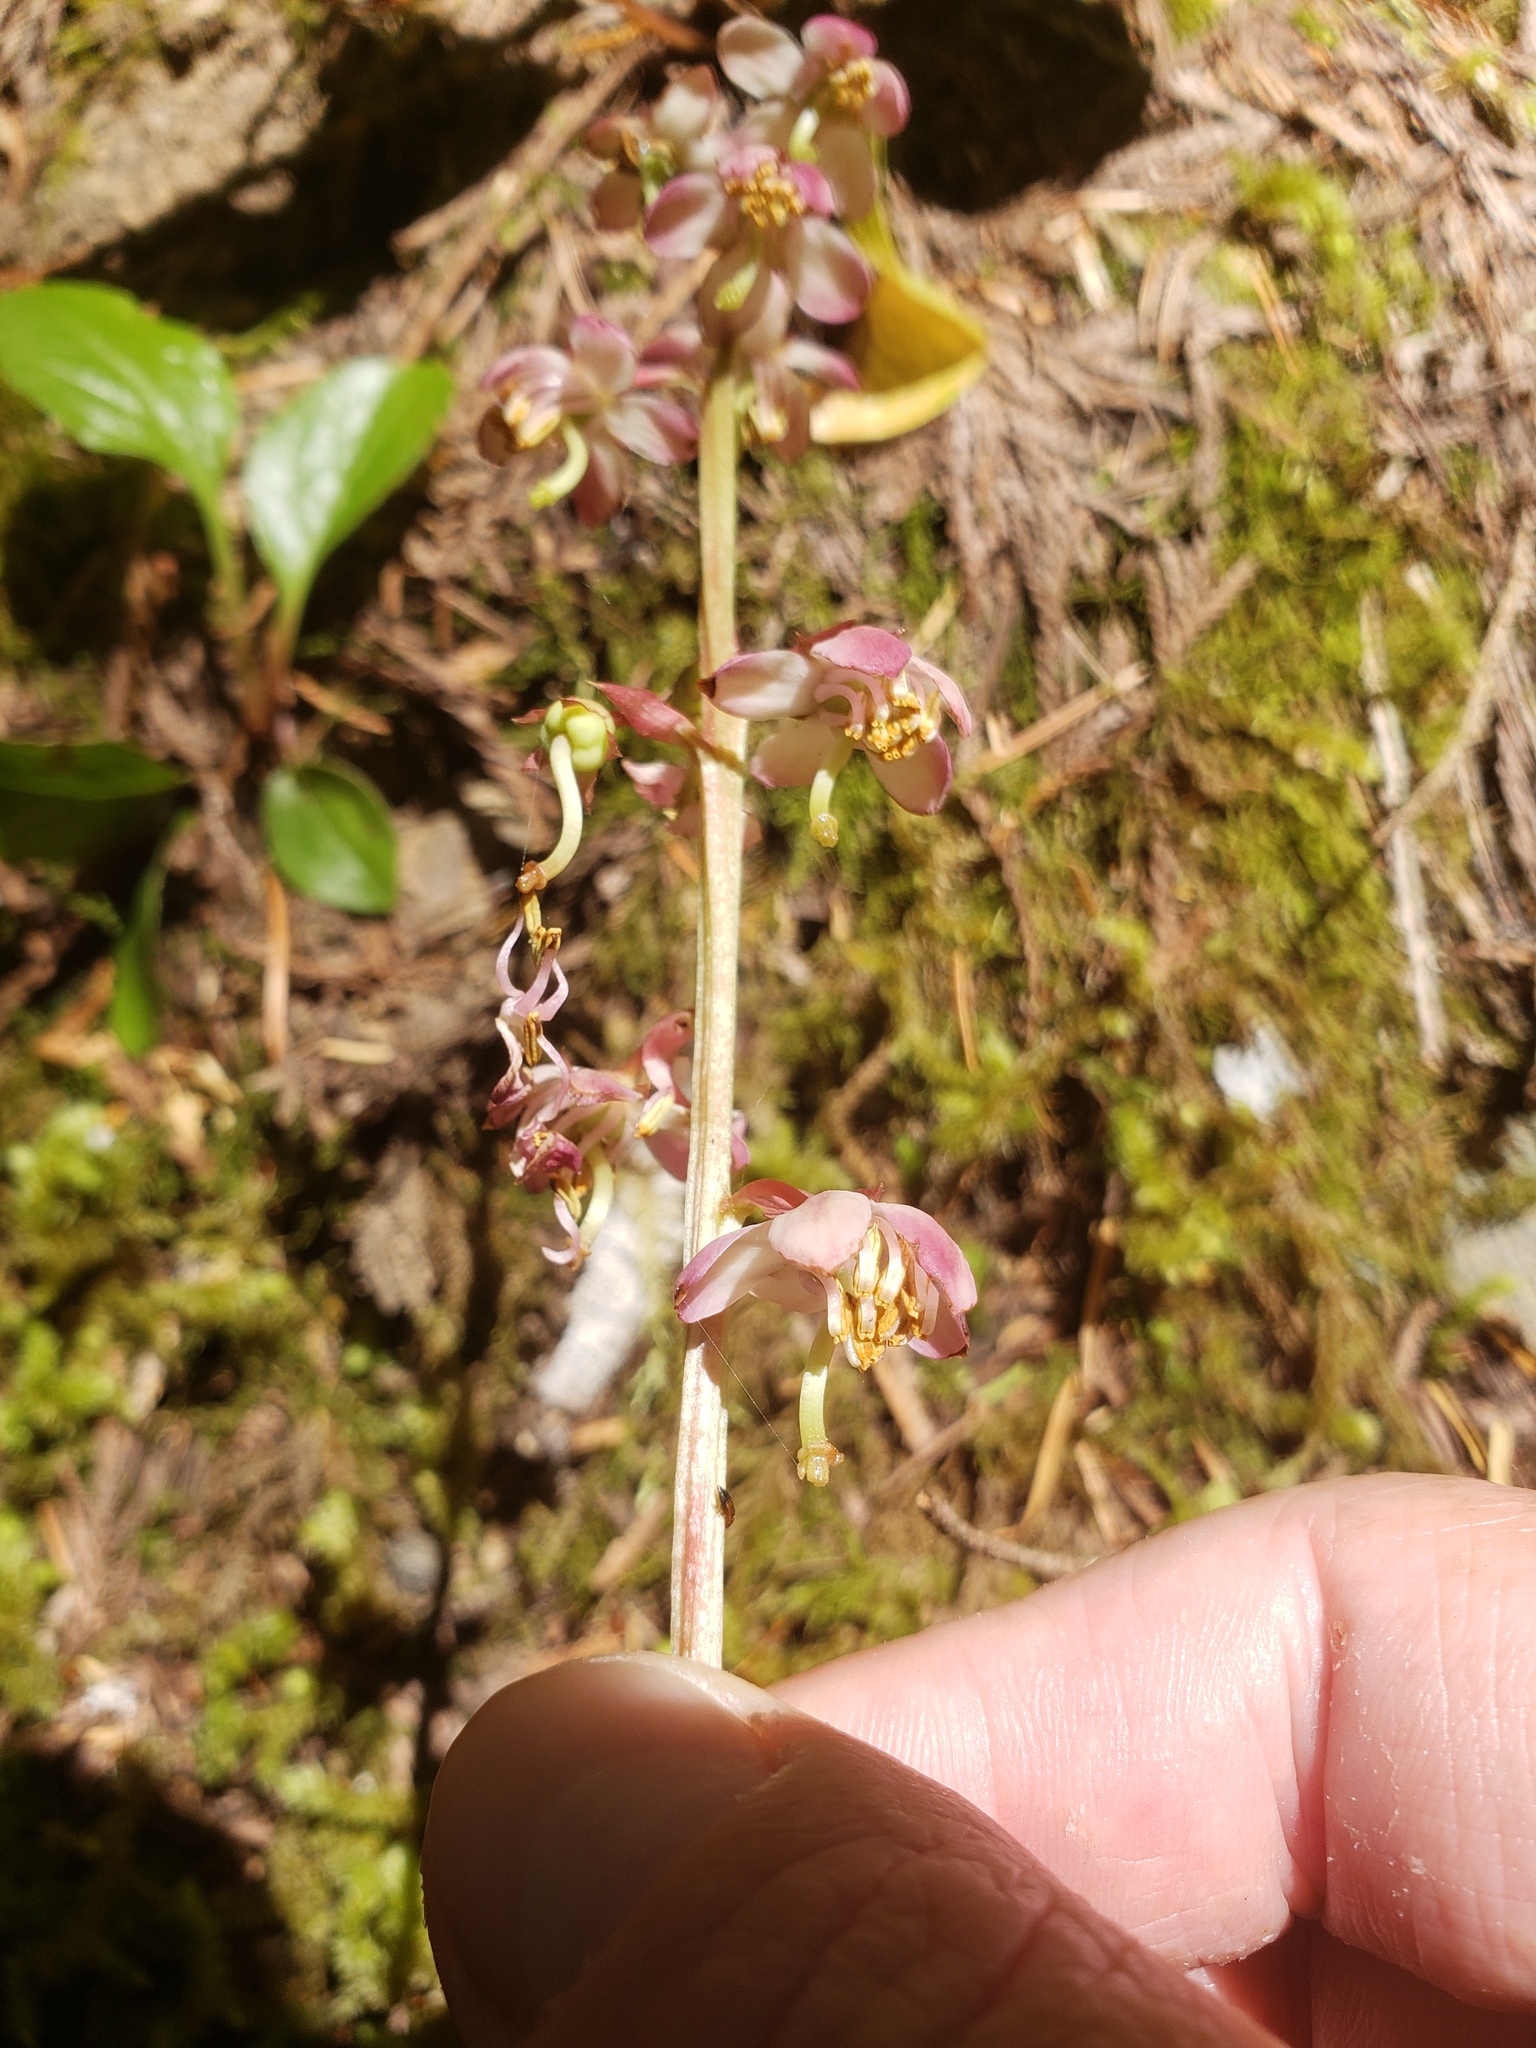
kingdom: Plantae
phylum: Tracheophyta
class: Magnoliopsida
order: Ericales
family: Ericaceae
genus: Pyrola
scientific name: Pyrola asarifolia
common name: Bog wintergreen
